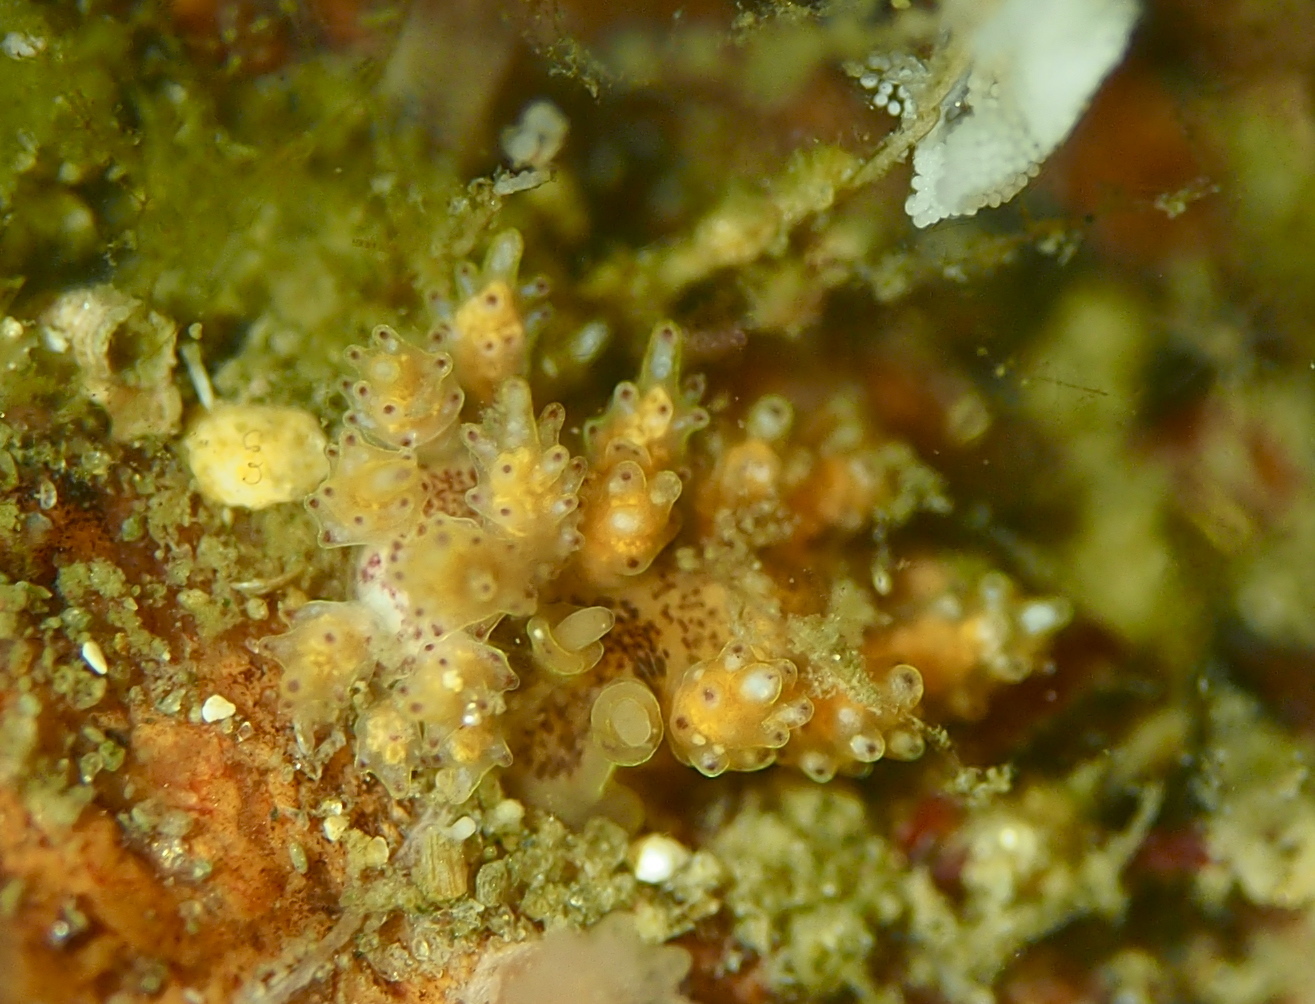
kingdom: Animalia
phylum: Mollusca
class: Gastropoda
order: Nudibranchia
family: Dotidae
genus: Doto
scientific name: Doto dunnei
